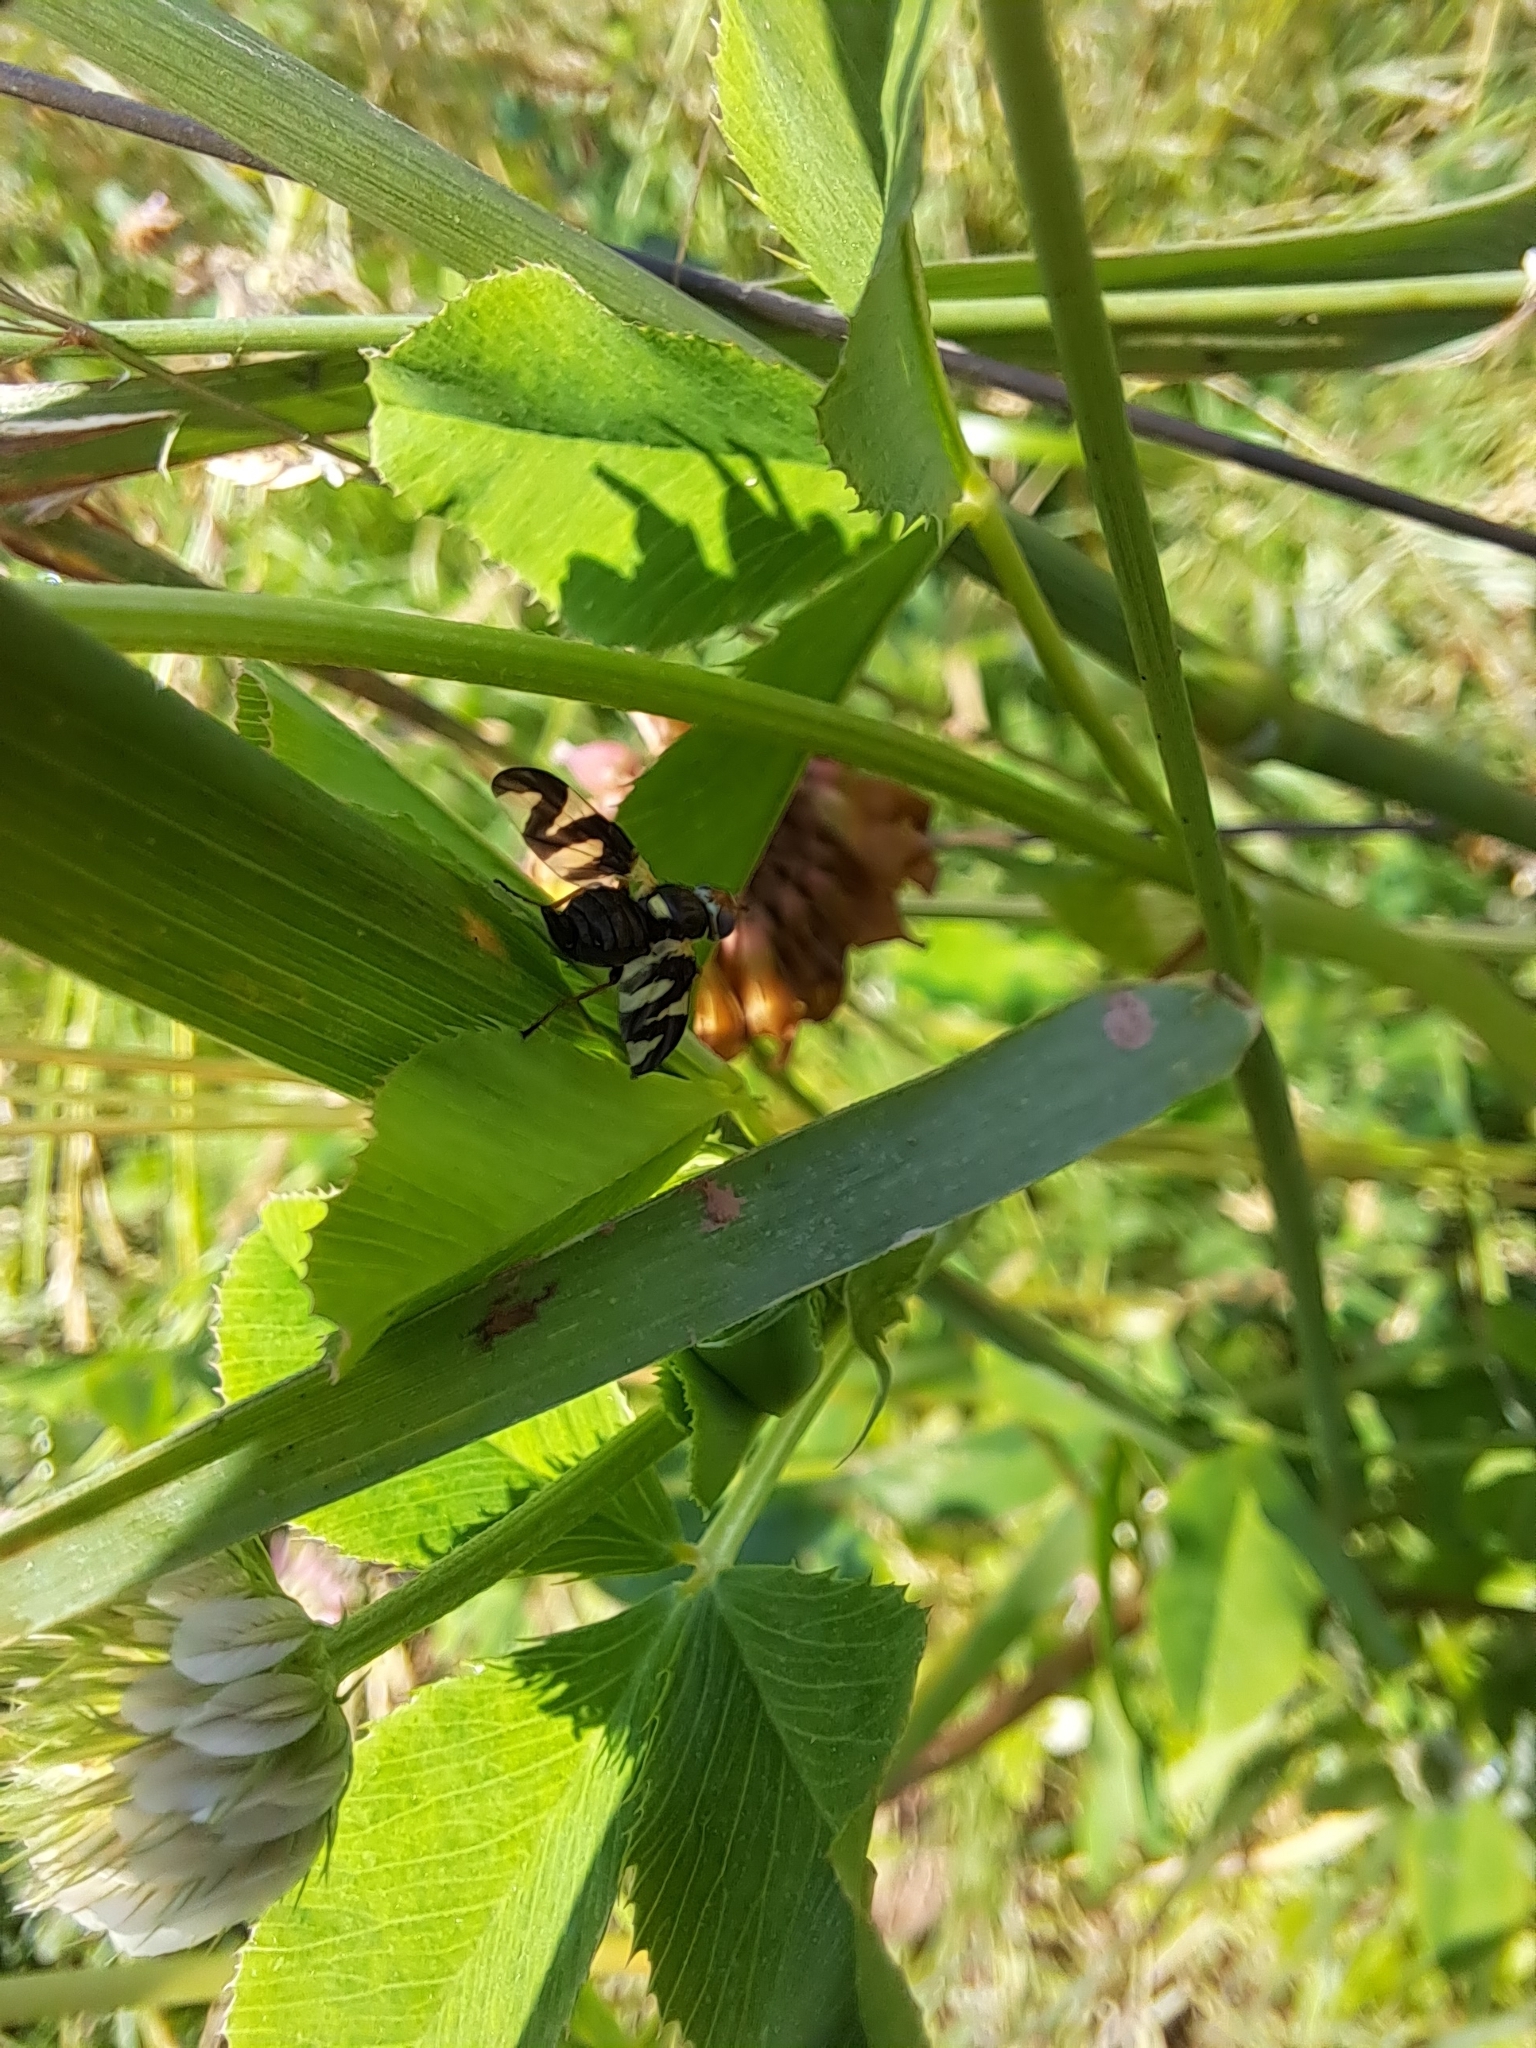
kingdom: Animalia
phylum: Arthropoda
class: Insecta
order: Diptera
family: Tephritidae
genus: Urophora
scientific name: Urophora cardui
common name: Fruit fly
